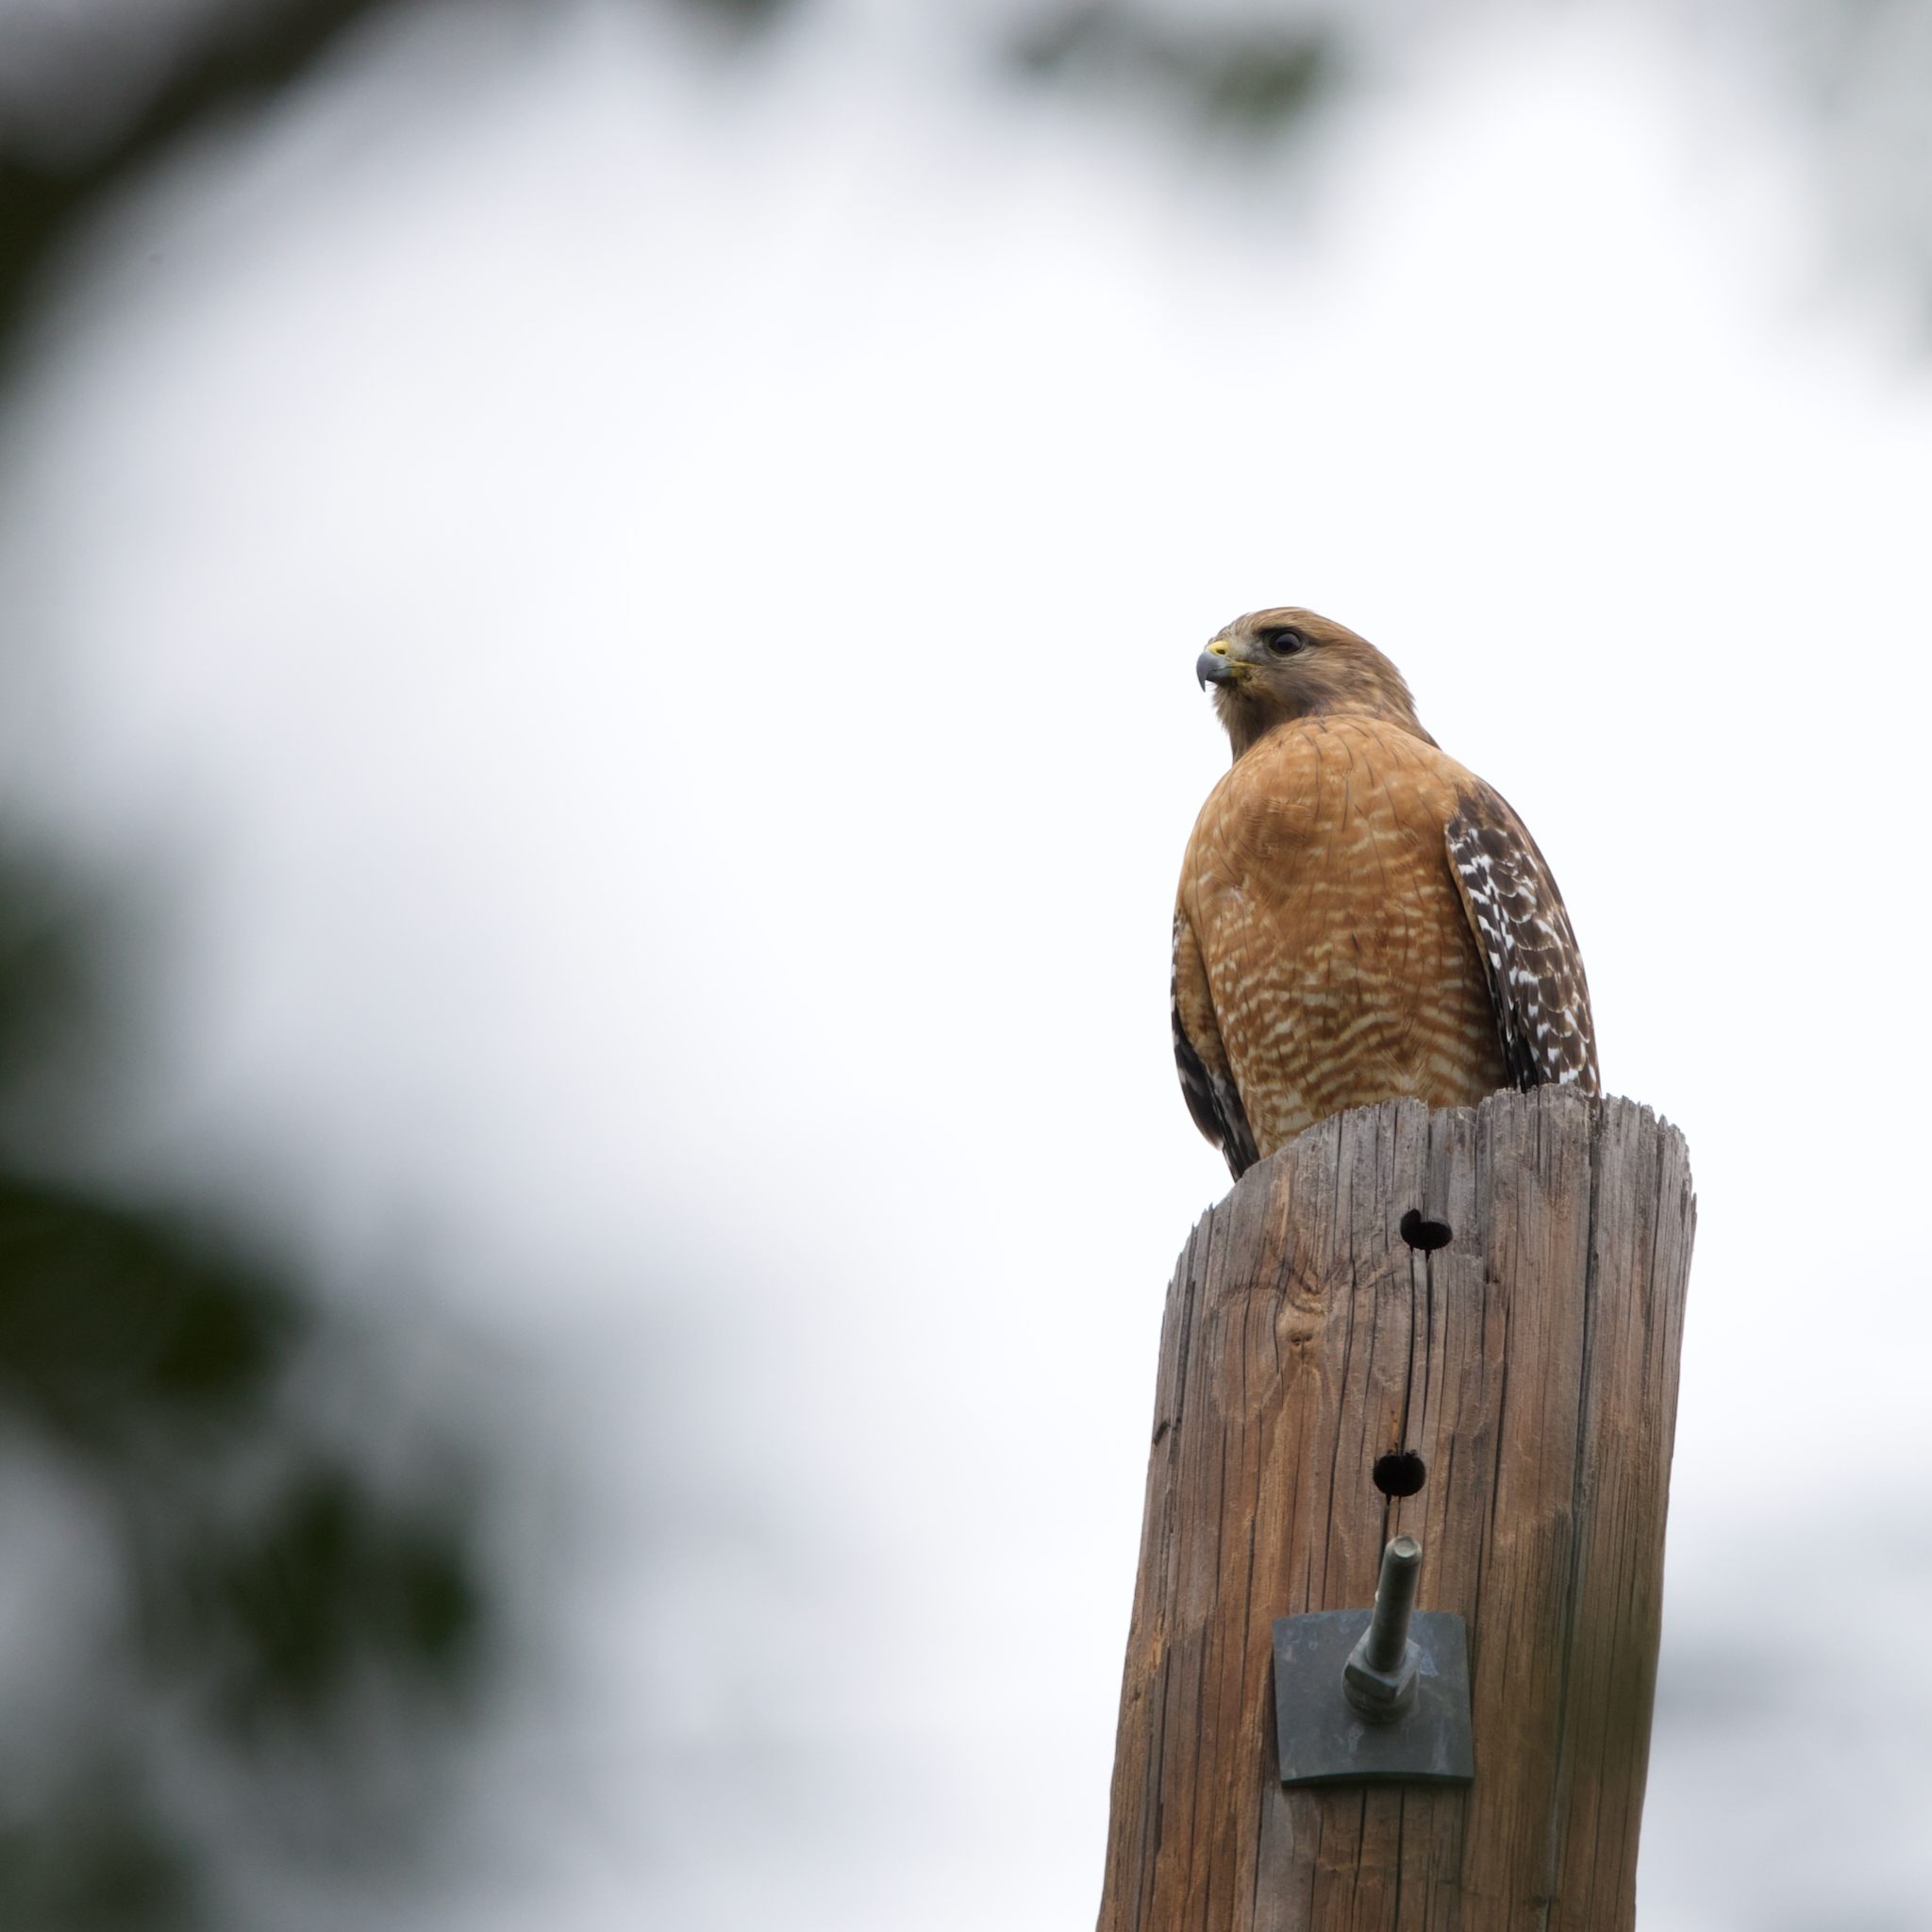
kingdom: Animalia
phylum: Chordata
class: Aves
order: Accipitriformes
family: Accipitridae
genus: Buteo
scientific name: Buteo lineatus
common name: Red-shouldered hawk
